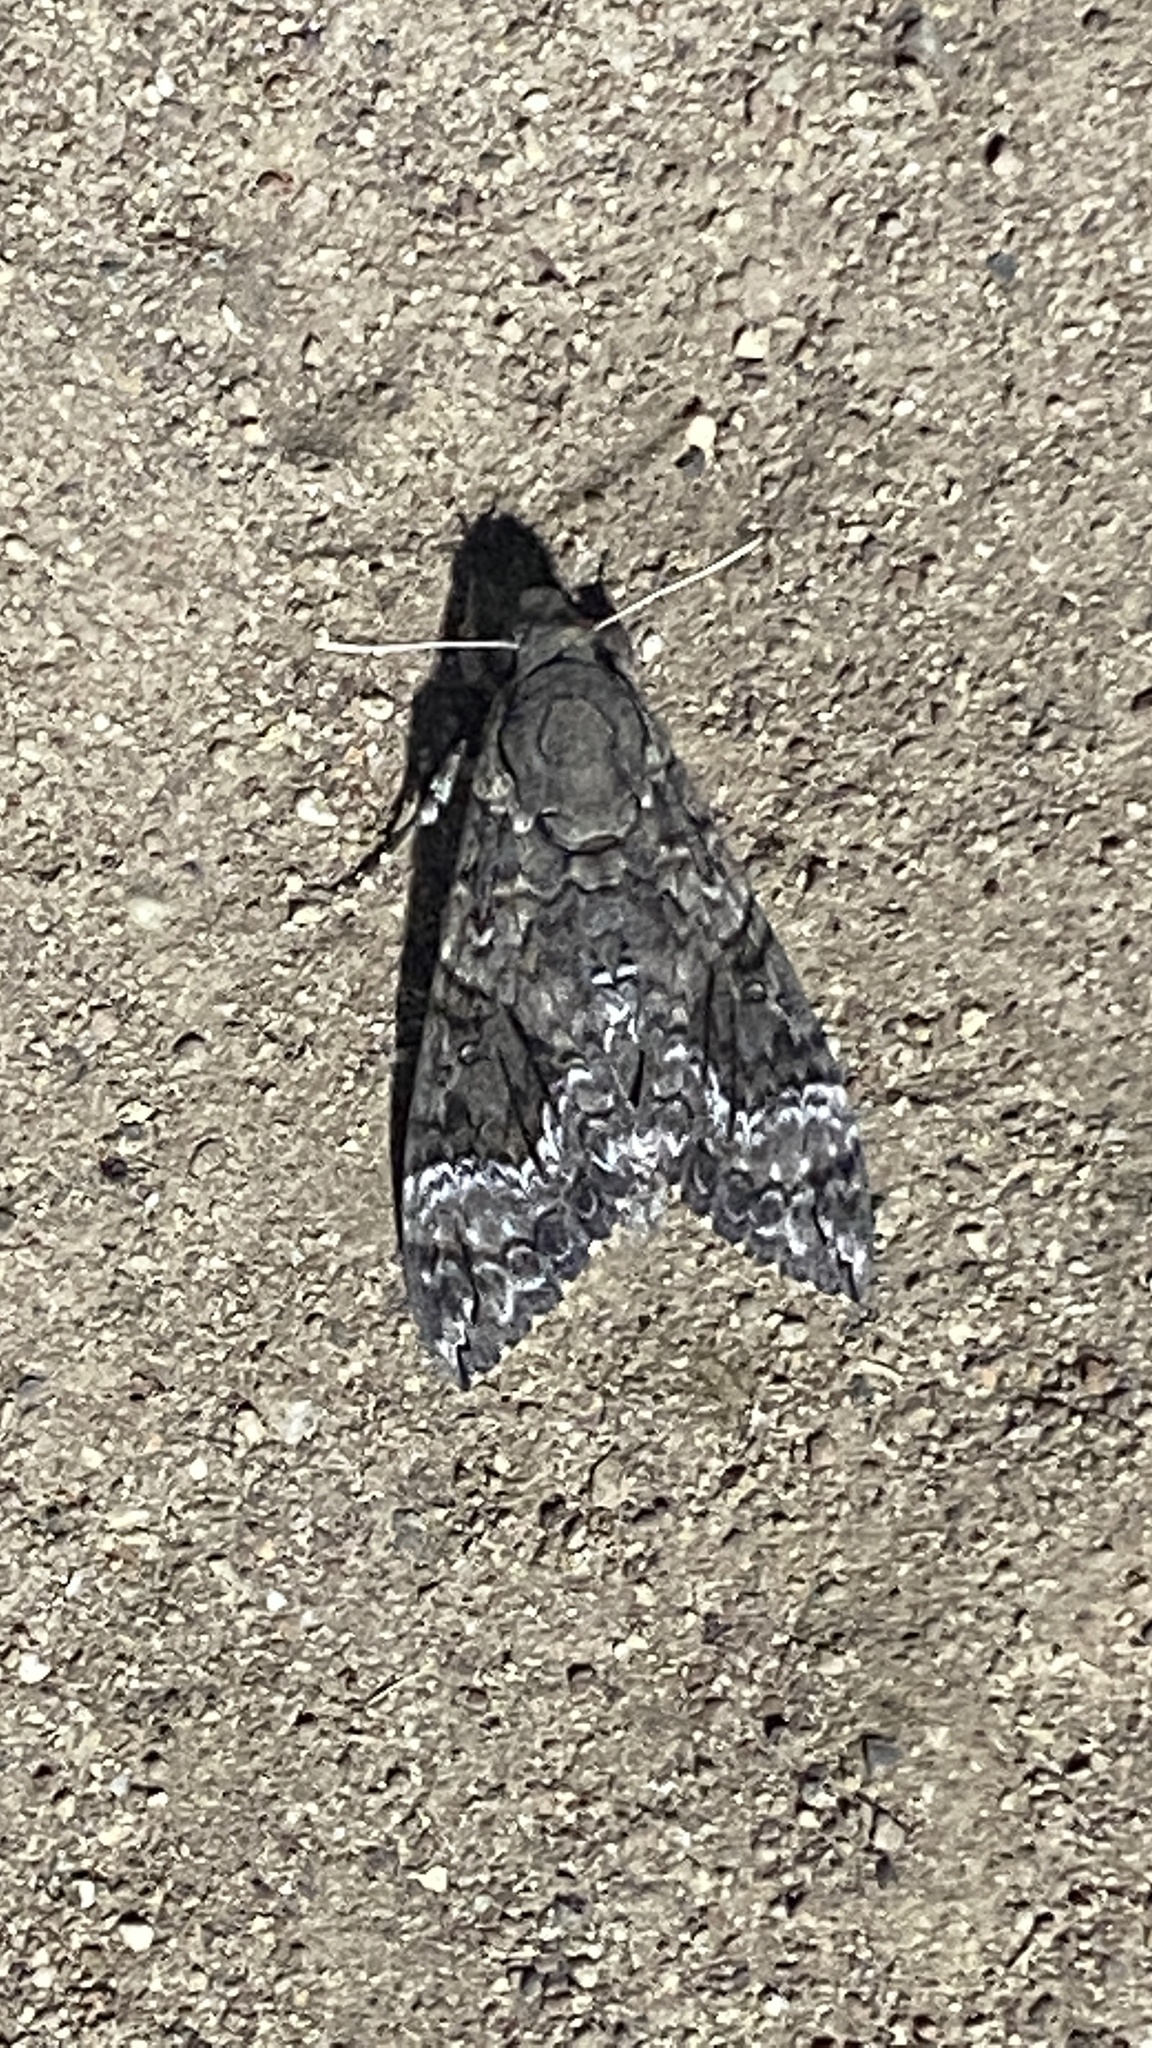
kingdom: Animalia
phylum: Arthropoda
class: Insecta
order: Lepidoptera
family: Sphingidae
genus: Agrius
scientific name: Agrius cingulata
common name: Pink-spotted hawkmoth
